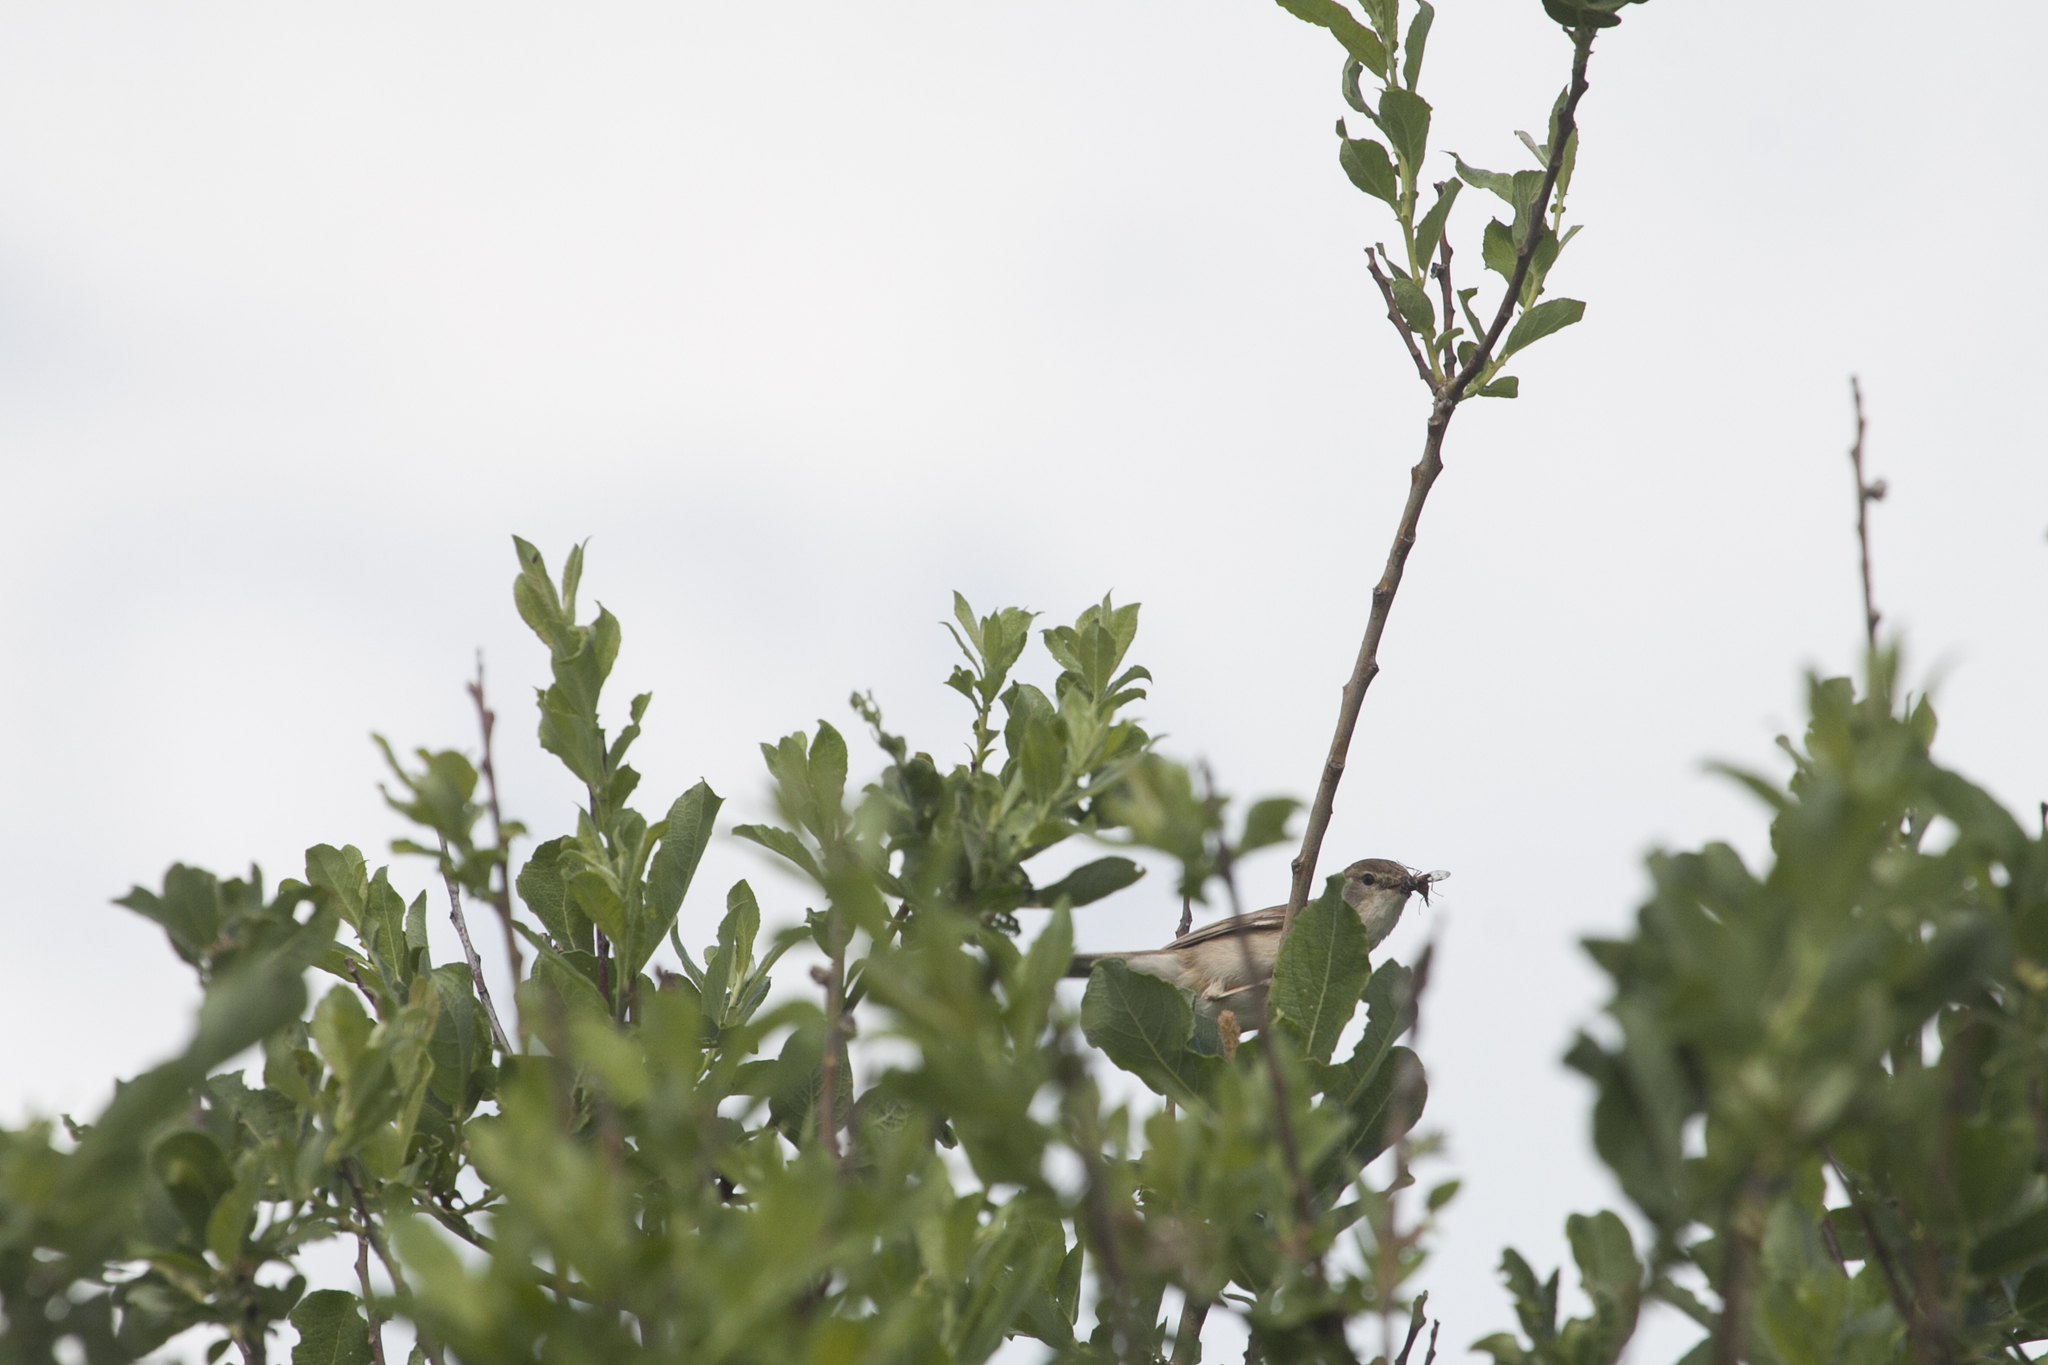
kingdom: Animalia
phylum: Chordata
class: Aves
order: Passeriformes
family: Acrocephalidae
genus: Iduna
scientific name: Iduna caligata
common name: Booted warbler
